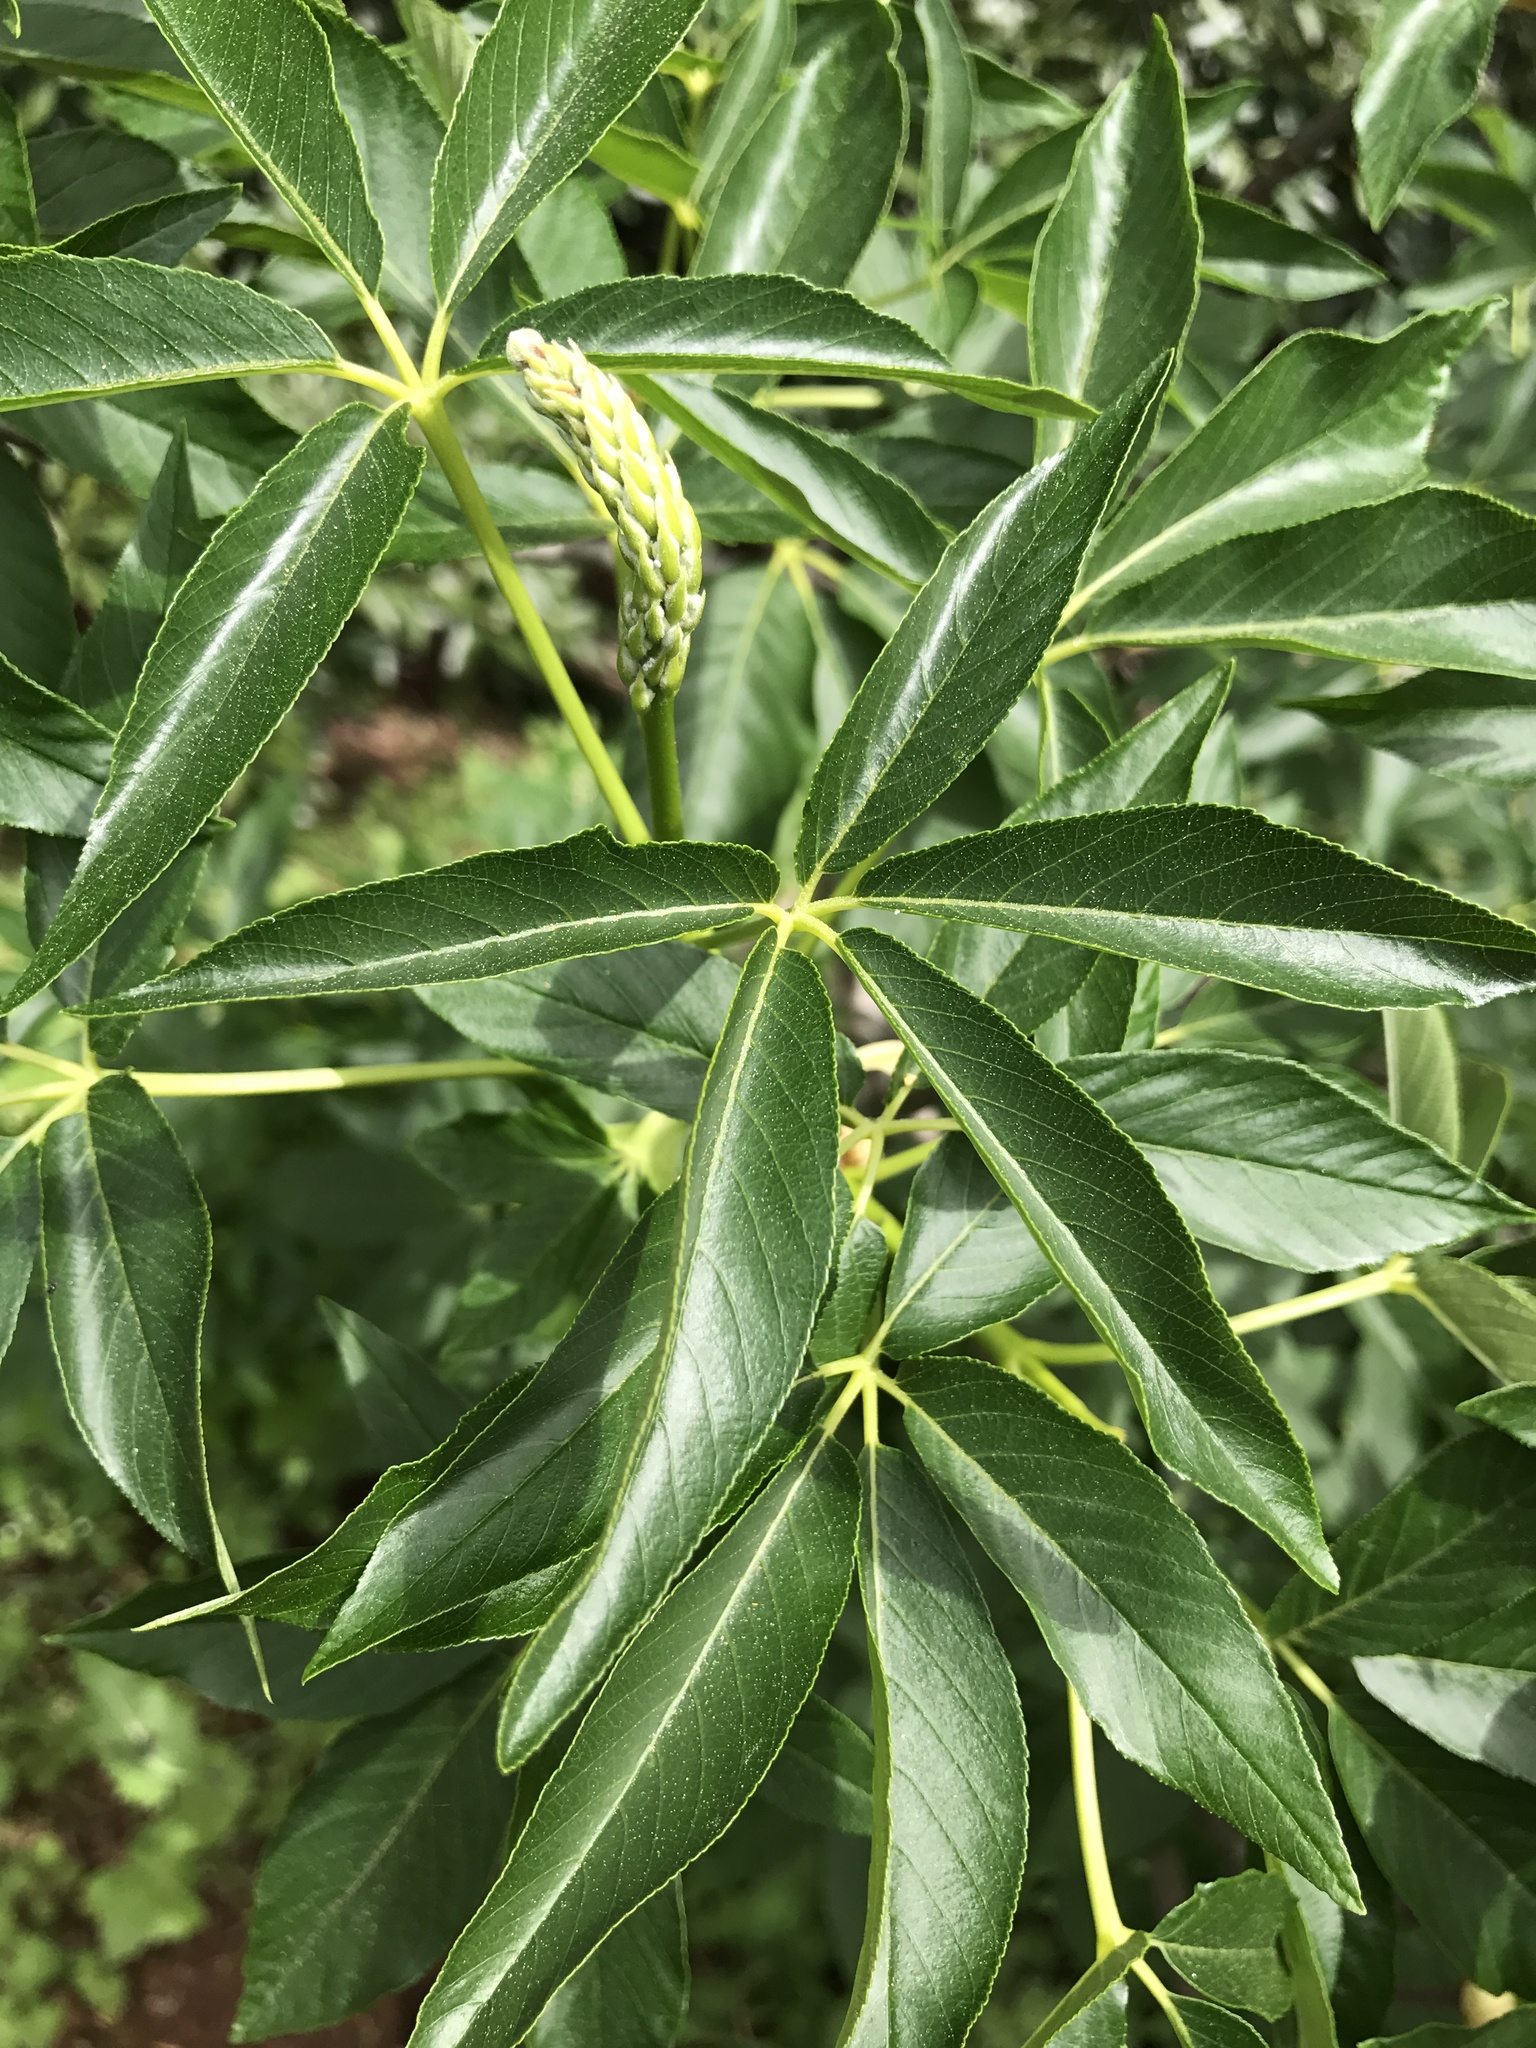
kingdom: Plantae
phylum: Tracheophyta
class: Magnoliopsida
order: Sapindales
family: Sapindaceae
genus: Aesculus
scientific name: Aesculus californica
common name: California buckeye
